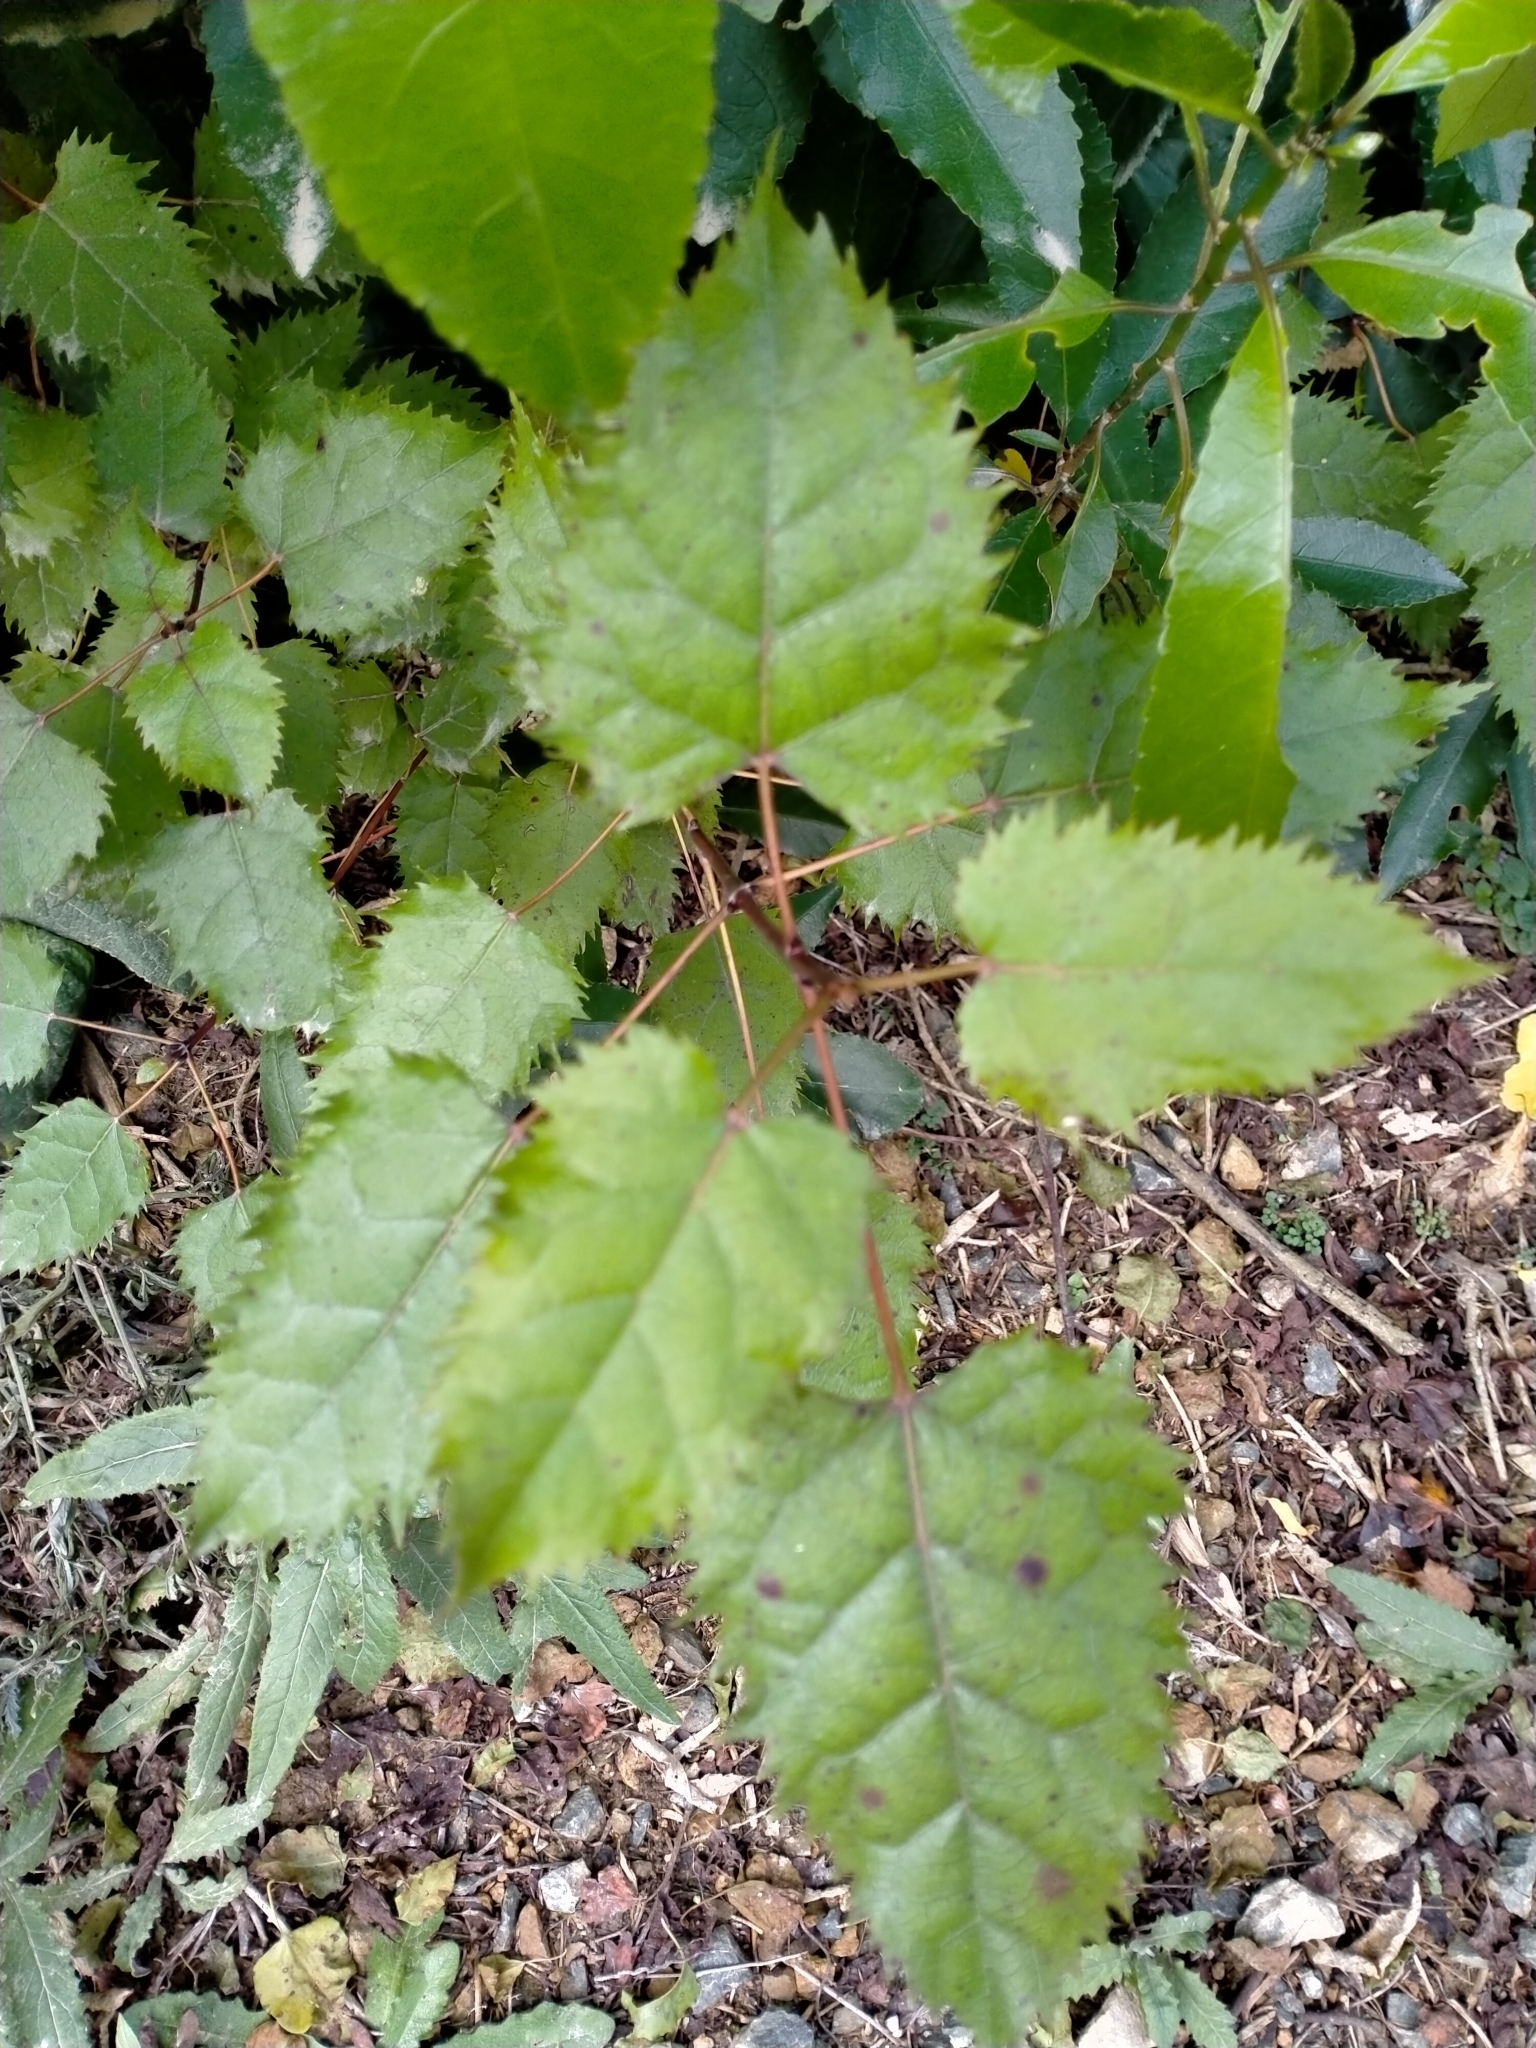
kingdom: Plantae
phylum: Tracheophyta
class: Magnoliopsida
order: Oxalidales
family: Elaeocarpaceae
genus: Aristotelia
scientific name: Aristotelia serrata
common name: New zealand wineberry
